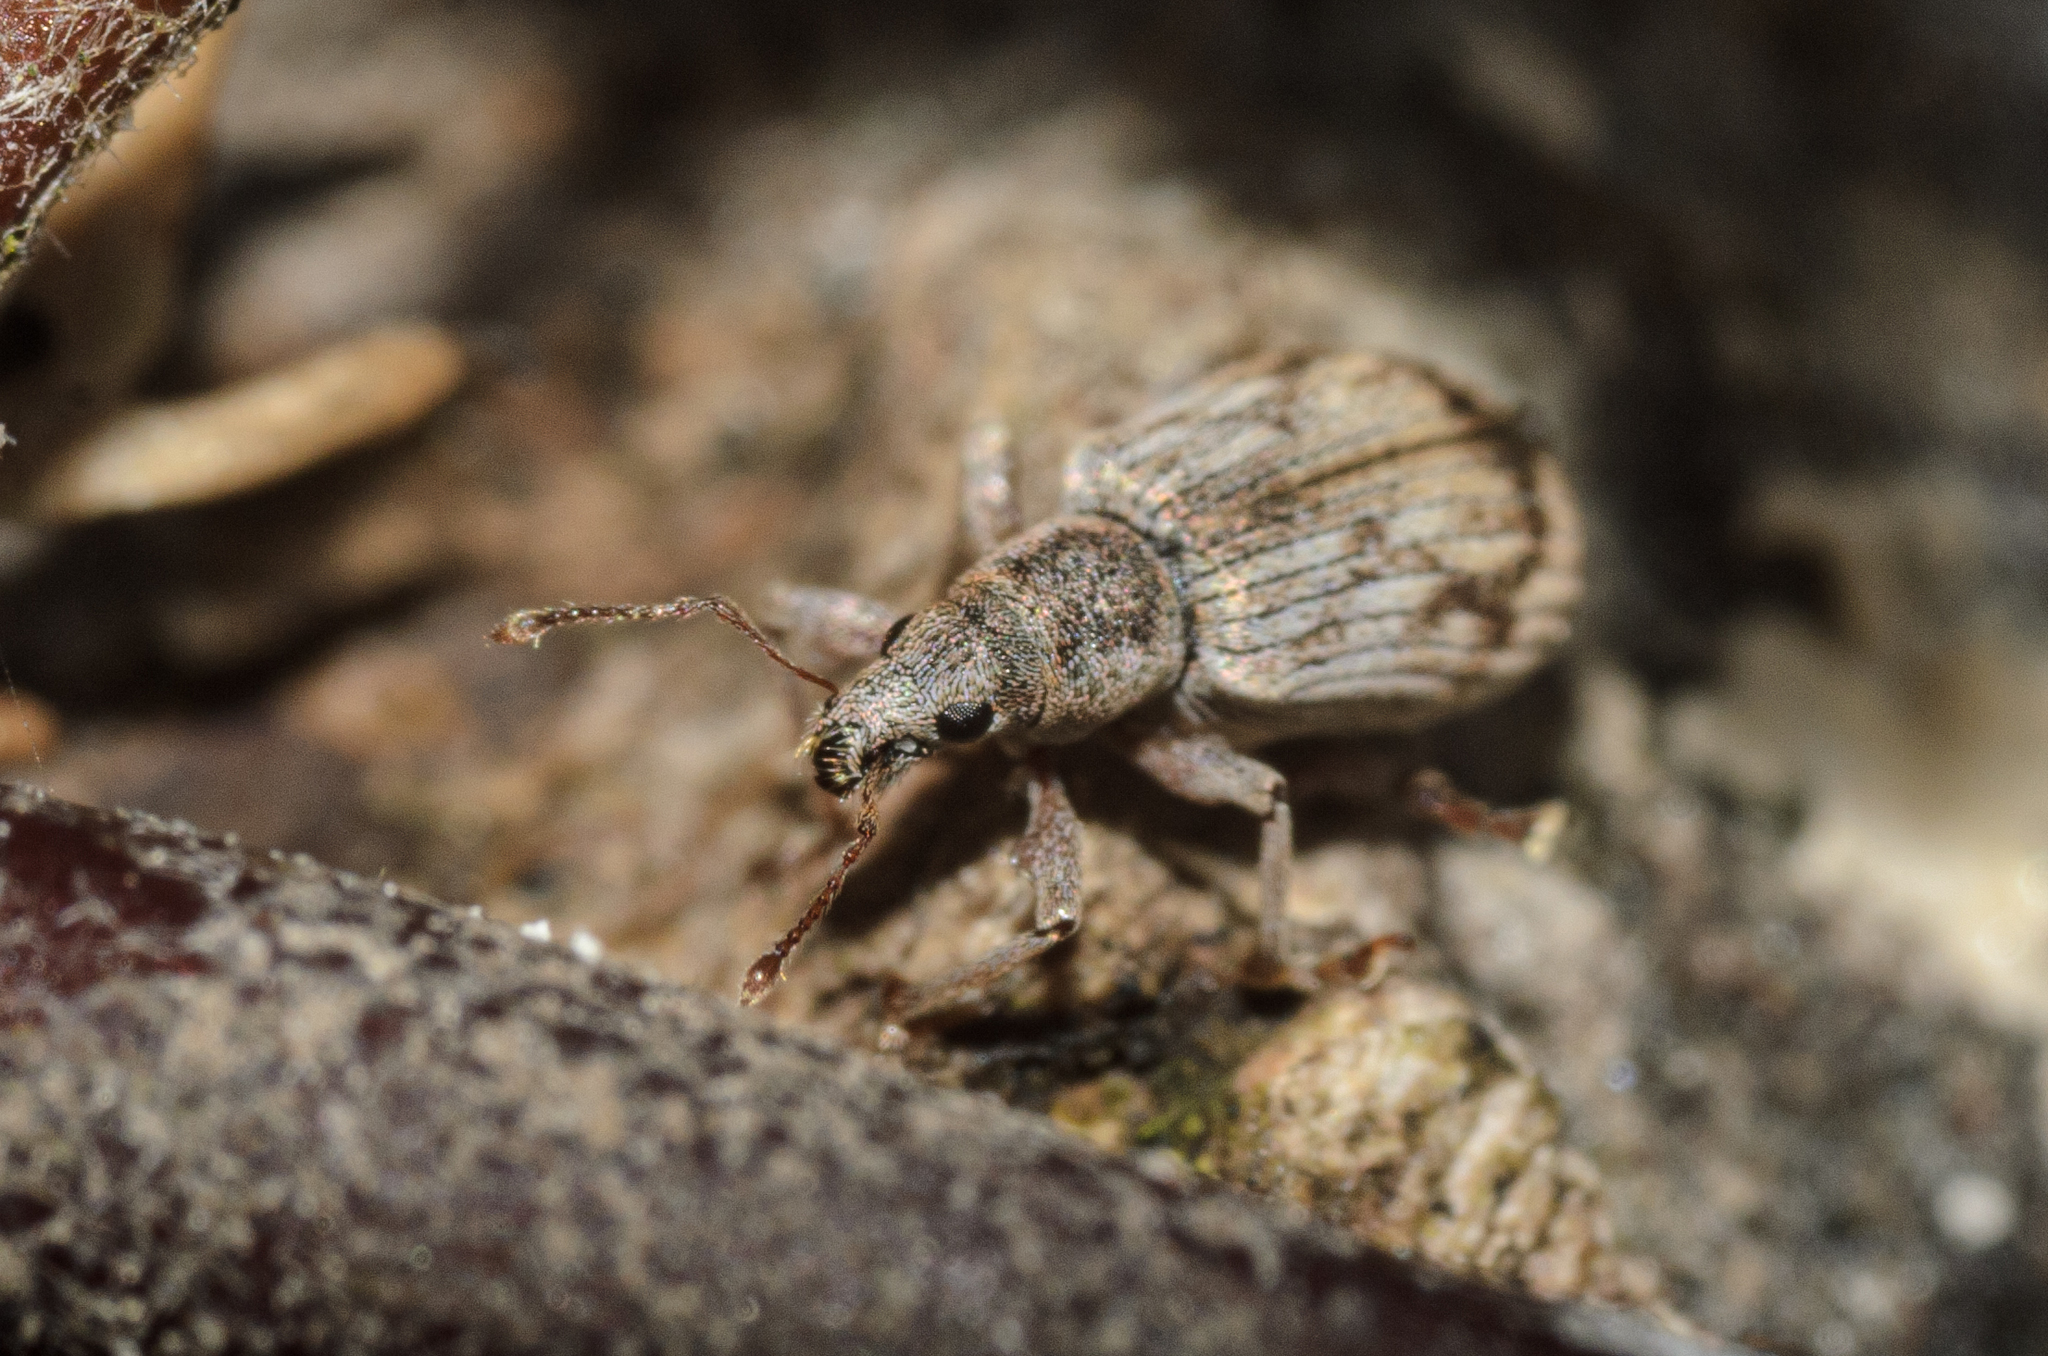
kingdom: Animalia
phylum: Arthropoda
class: Insecta
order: Coleoptera
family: Curculionidae
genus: Polydrusus
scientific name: Polydrusus tereticollis
